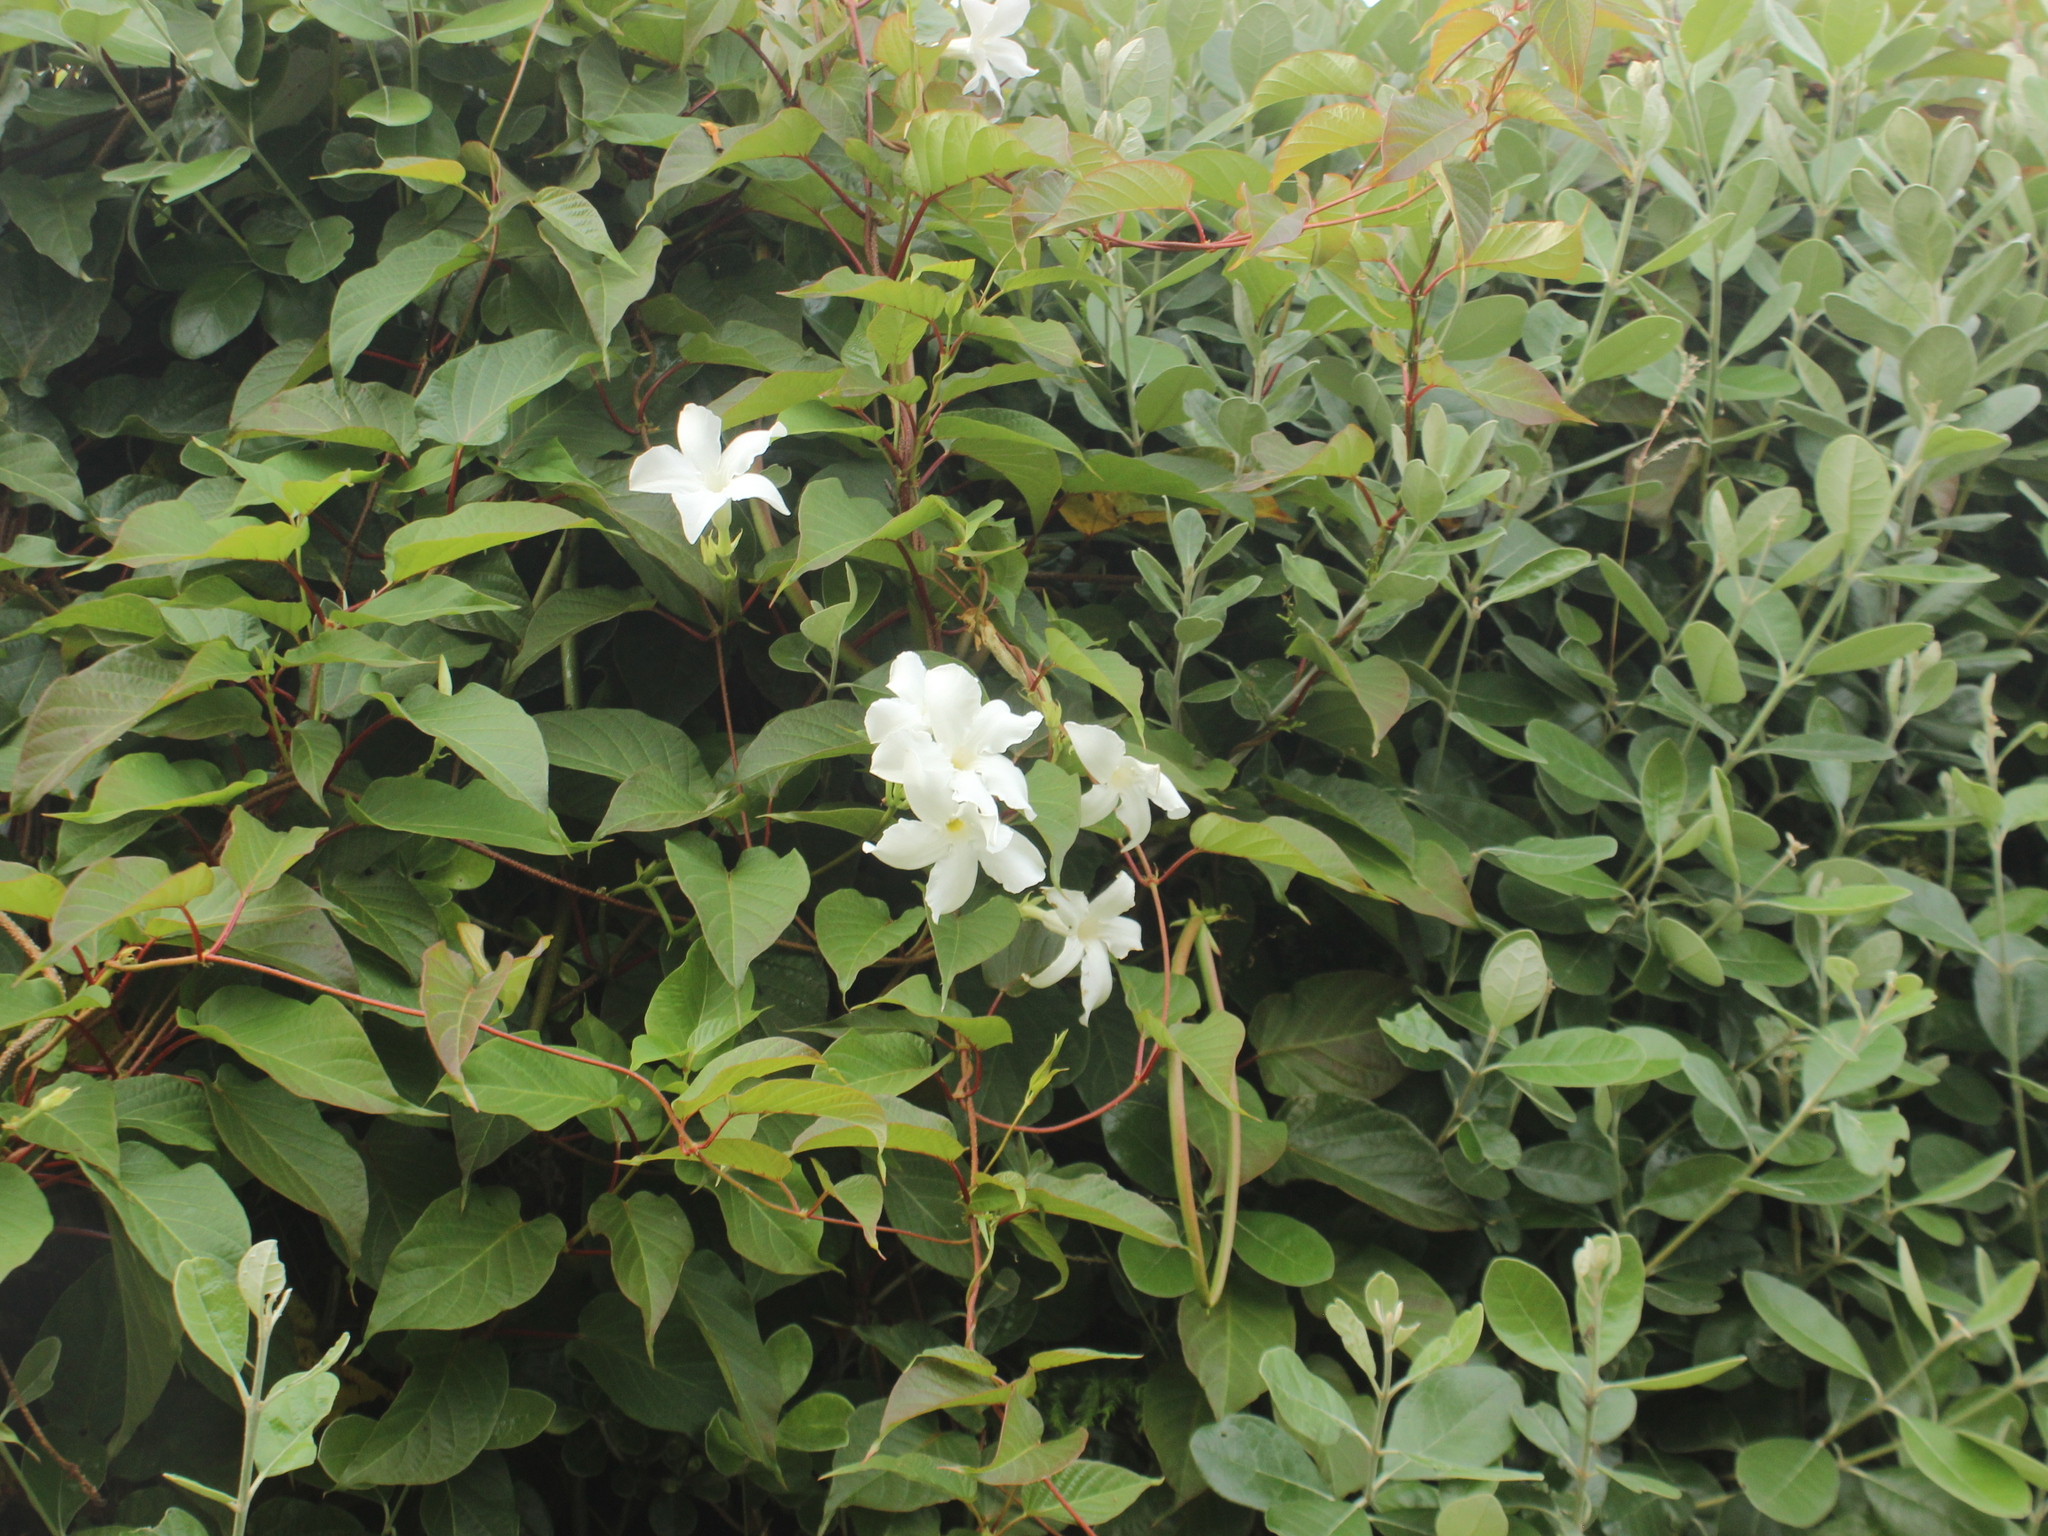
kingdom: Plantae
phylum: Tracheophyta
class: Magnoliopsida
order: Gentianales
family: Apocynaceae
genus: Mandevilla
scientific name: Mandevilla laxa
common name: Chilean-jasmine
